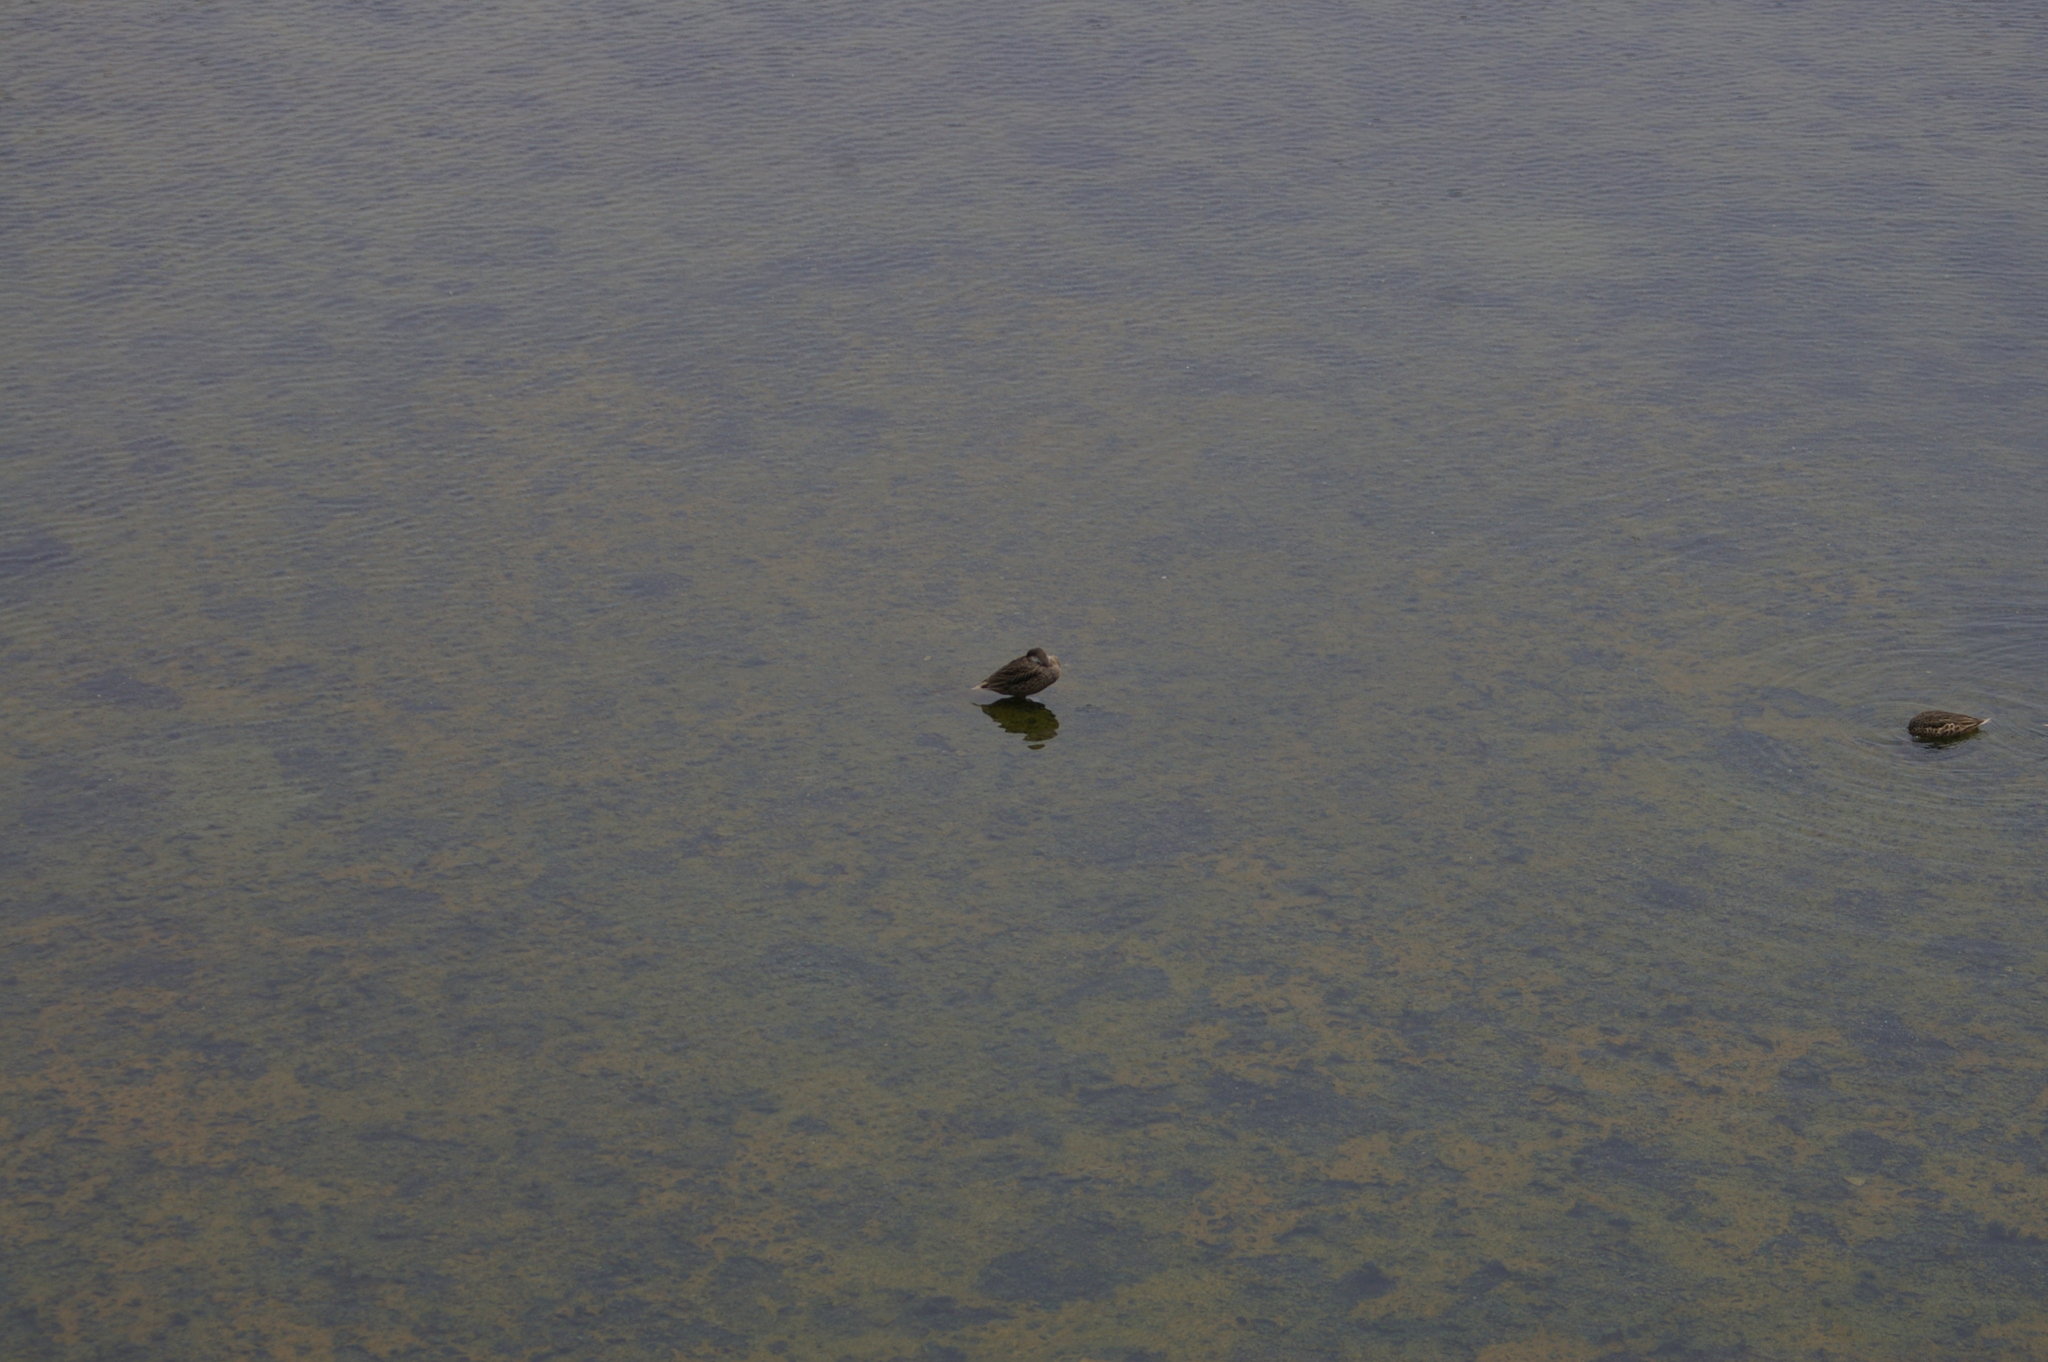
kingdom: Animalia
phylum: Chordata
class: Aves
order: Anseriformes
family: Anatidae
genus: Anas
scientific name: Anas bahamensis
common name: White-cheeked pintail
